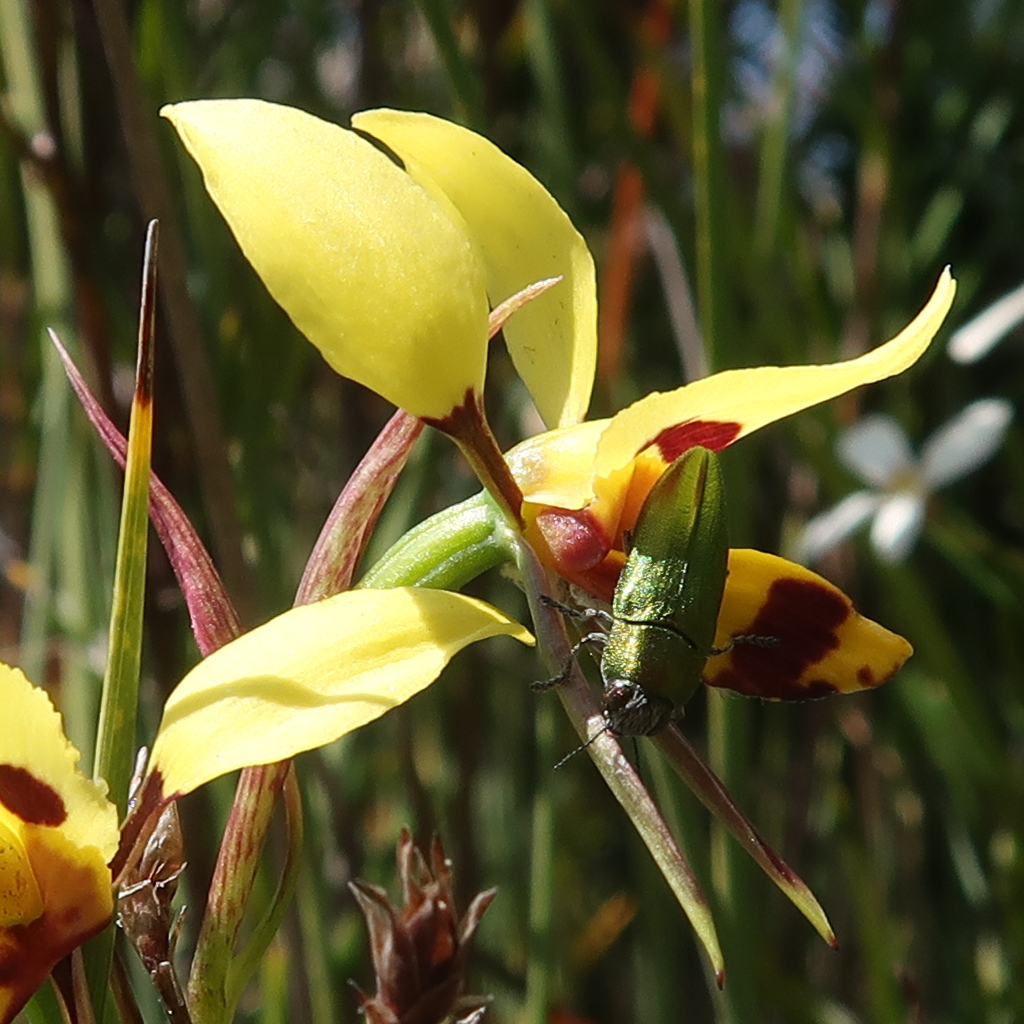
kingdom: Animalia
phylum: Arthropoda
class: Insecta
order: Coleoptera
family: Buprestidae
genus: Melobasis
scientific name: Melobasis propinqua
